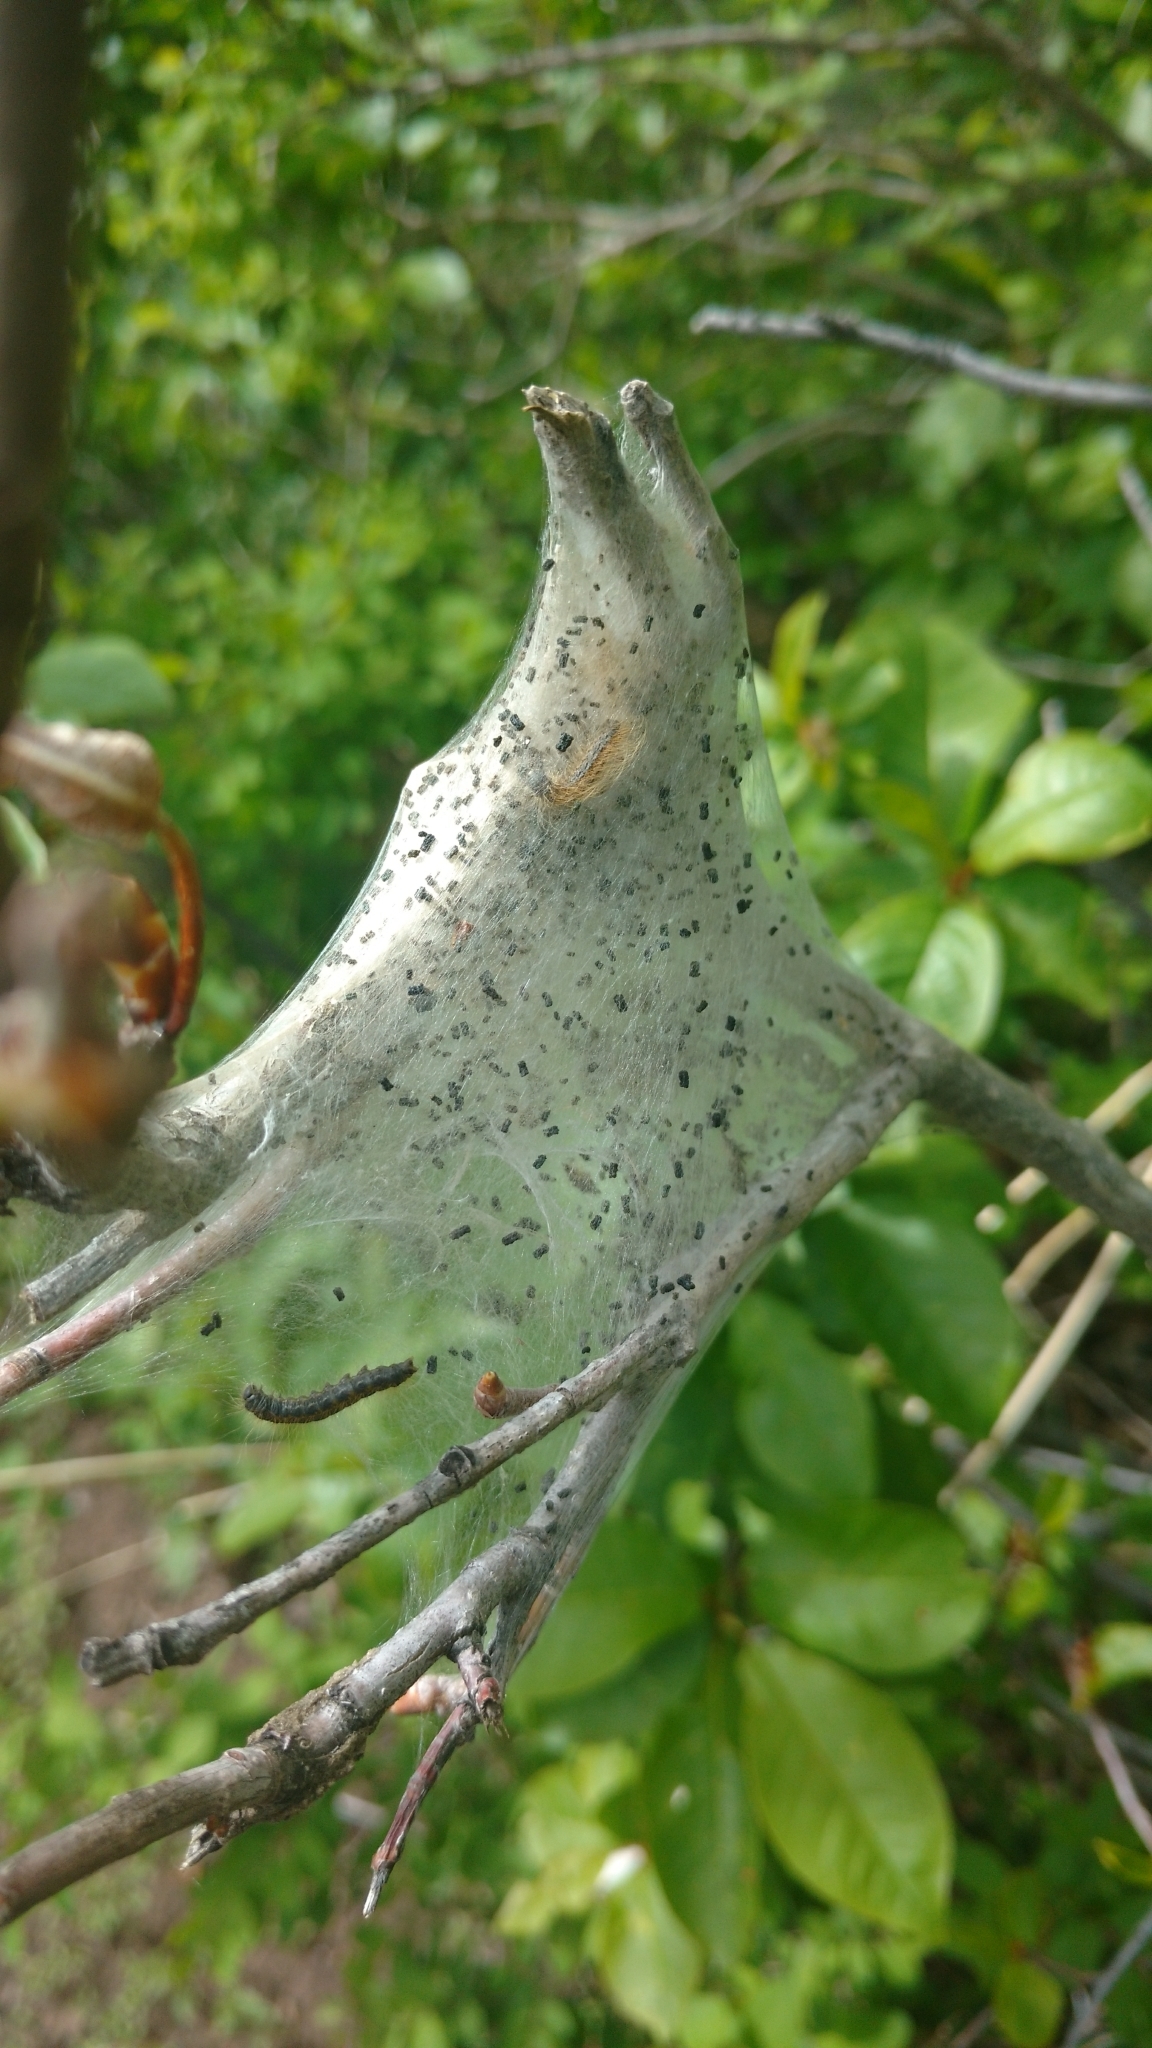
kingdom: Animalia
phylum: Arthropoda
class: Insecta
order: Lepidoptera
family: Lasiocampidae
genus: Malacosoma
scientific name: Malacosoma californica
